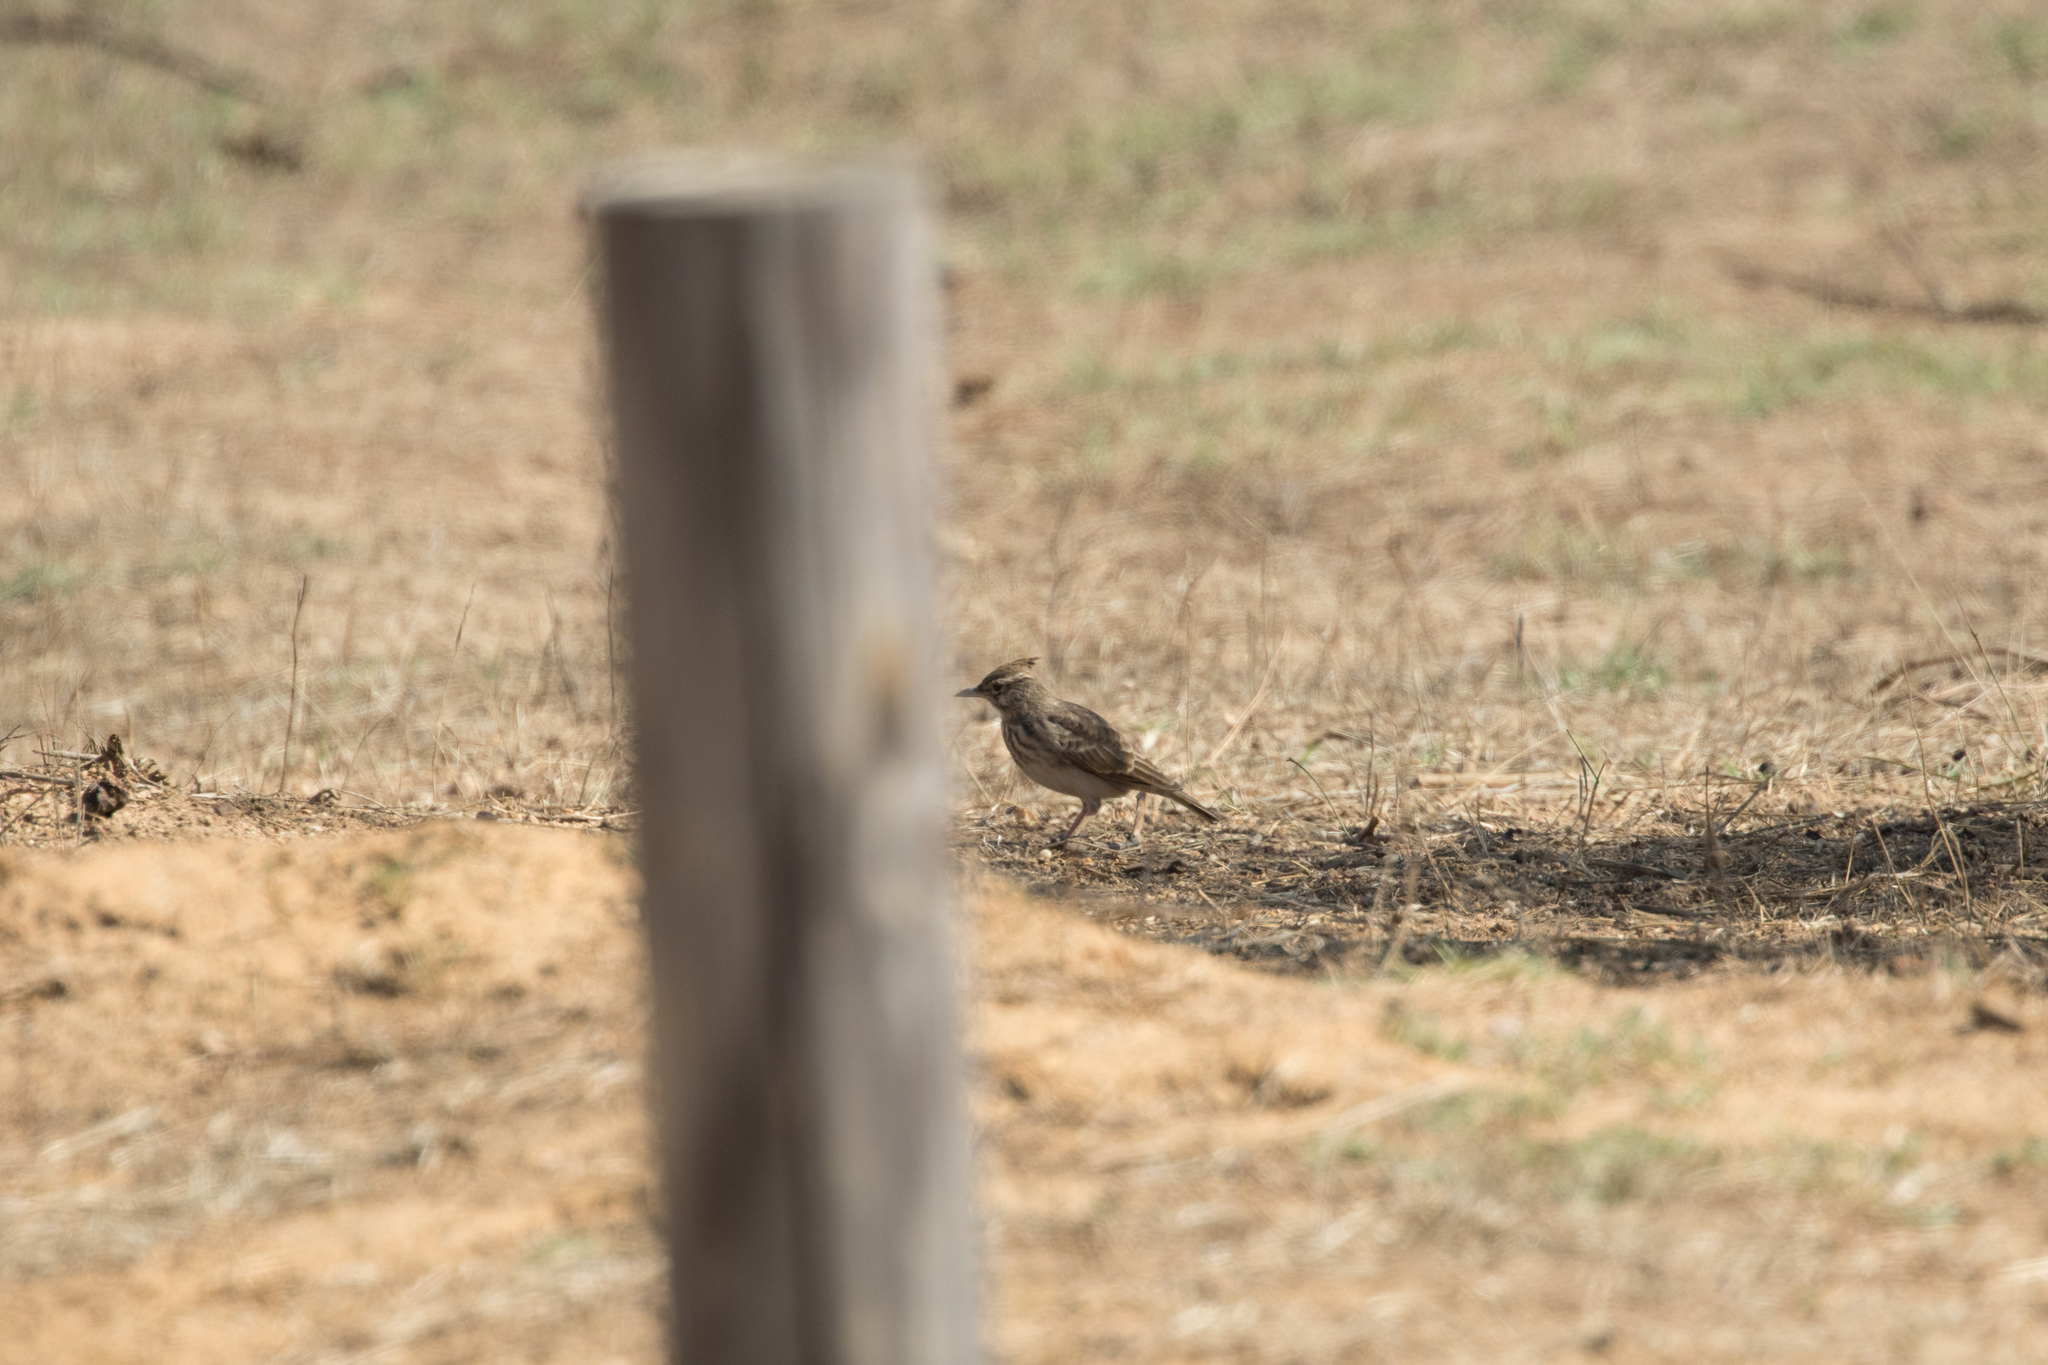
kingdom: Animalia
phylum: Chordata
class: Aves
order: Passeriformes
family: Alaudidae
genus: Galerida
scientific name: Galerida cristata
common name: Crested lark
